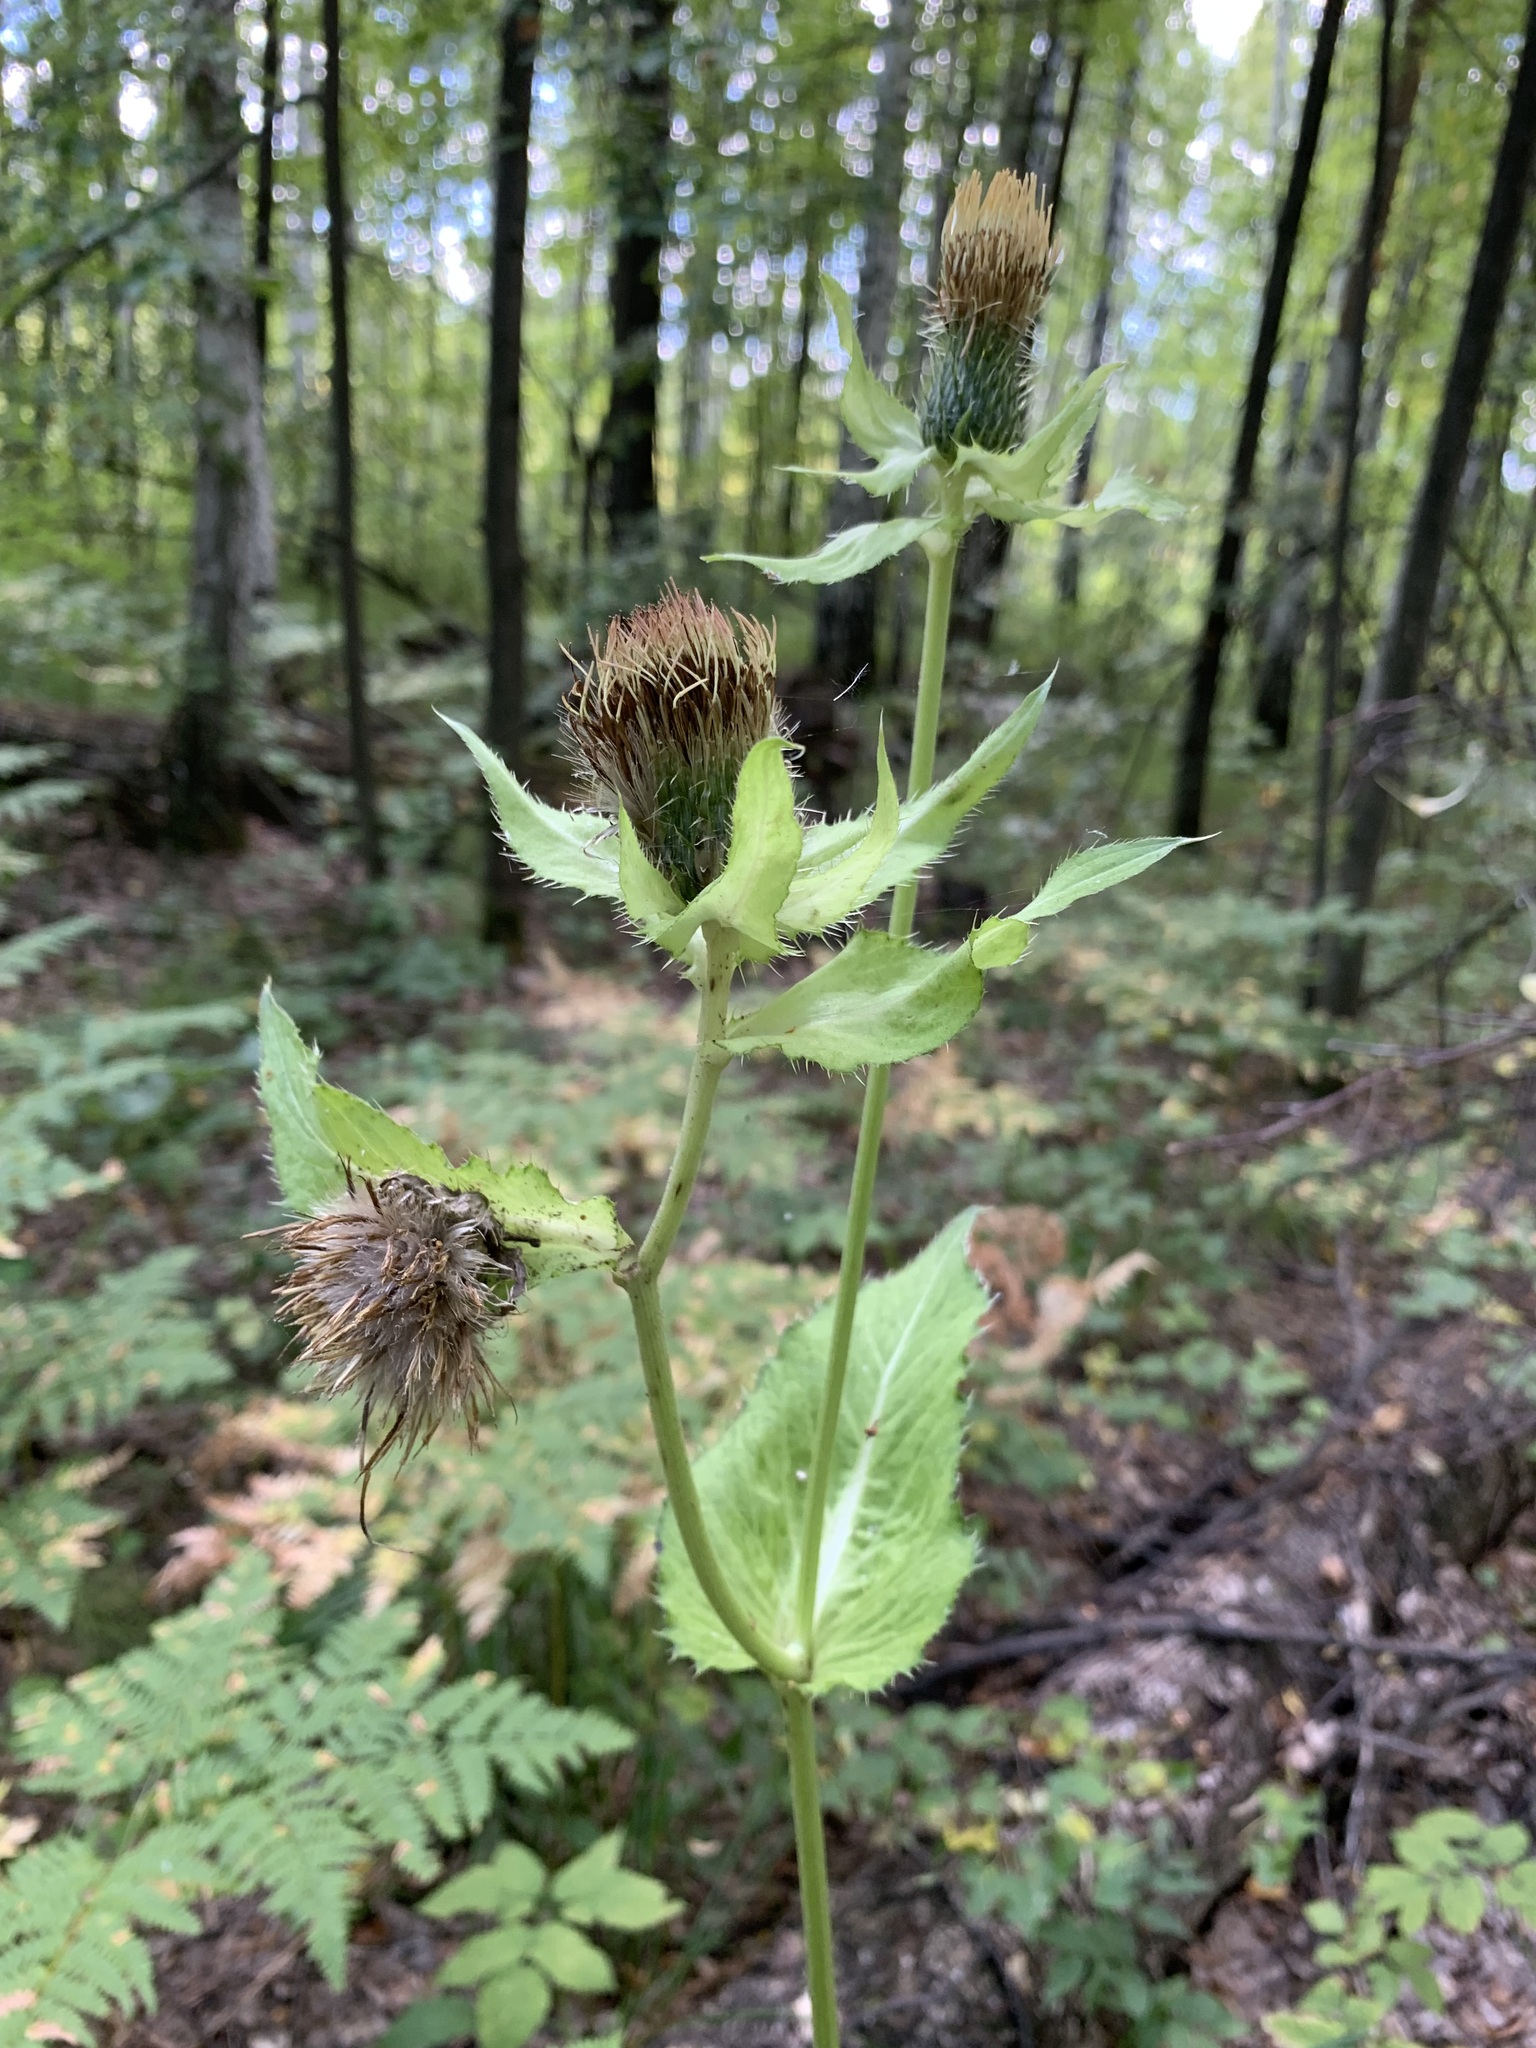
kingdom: Plantae
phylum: Tracheophyta
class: Magnoliopsida
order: Asterales
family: Asteraceae
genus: Cirsium
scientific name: Cirsium oleraceum
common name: Cabbage thistle
